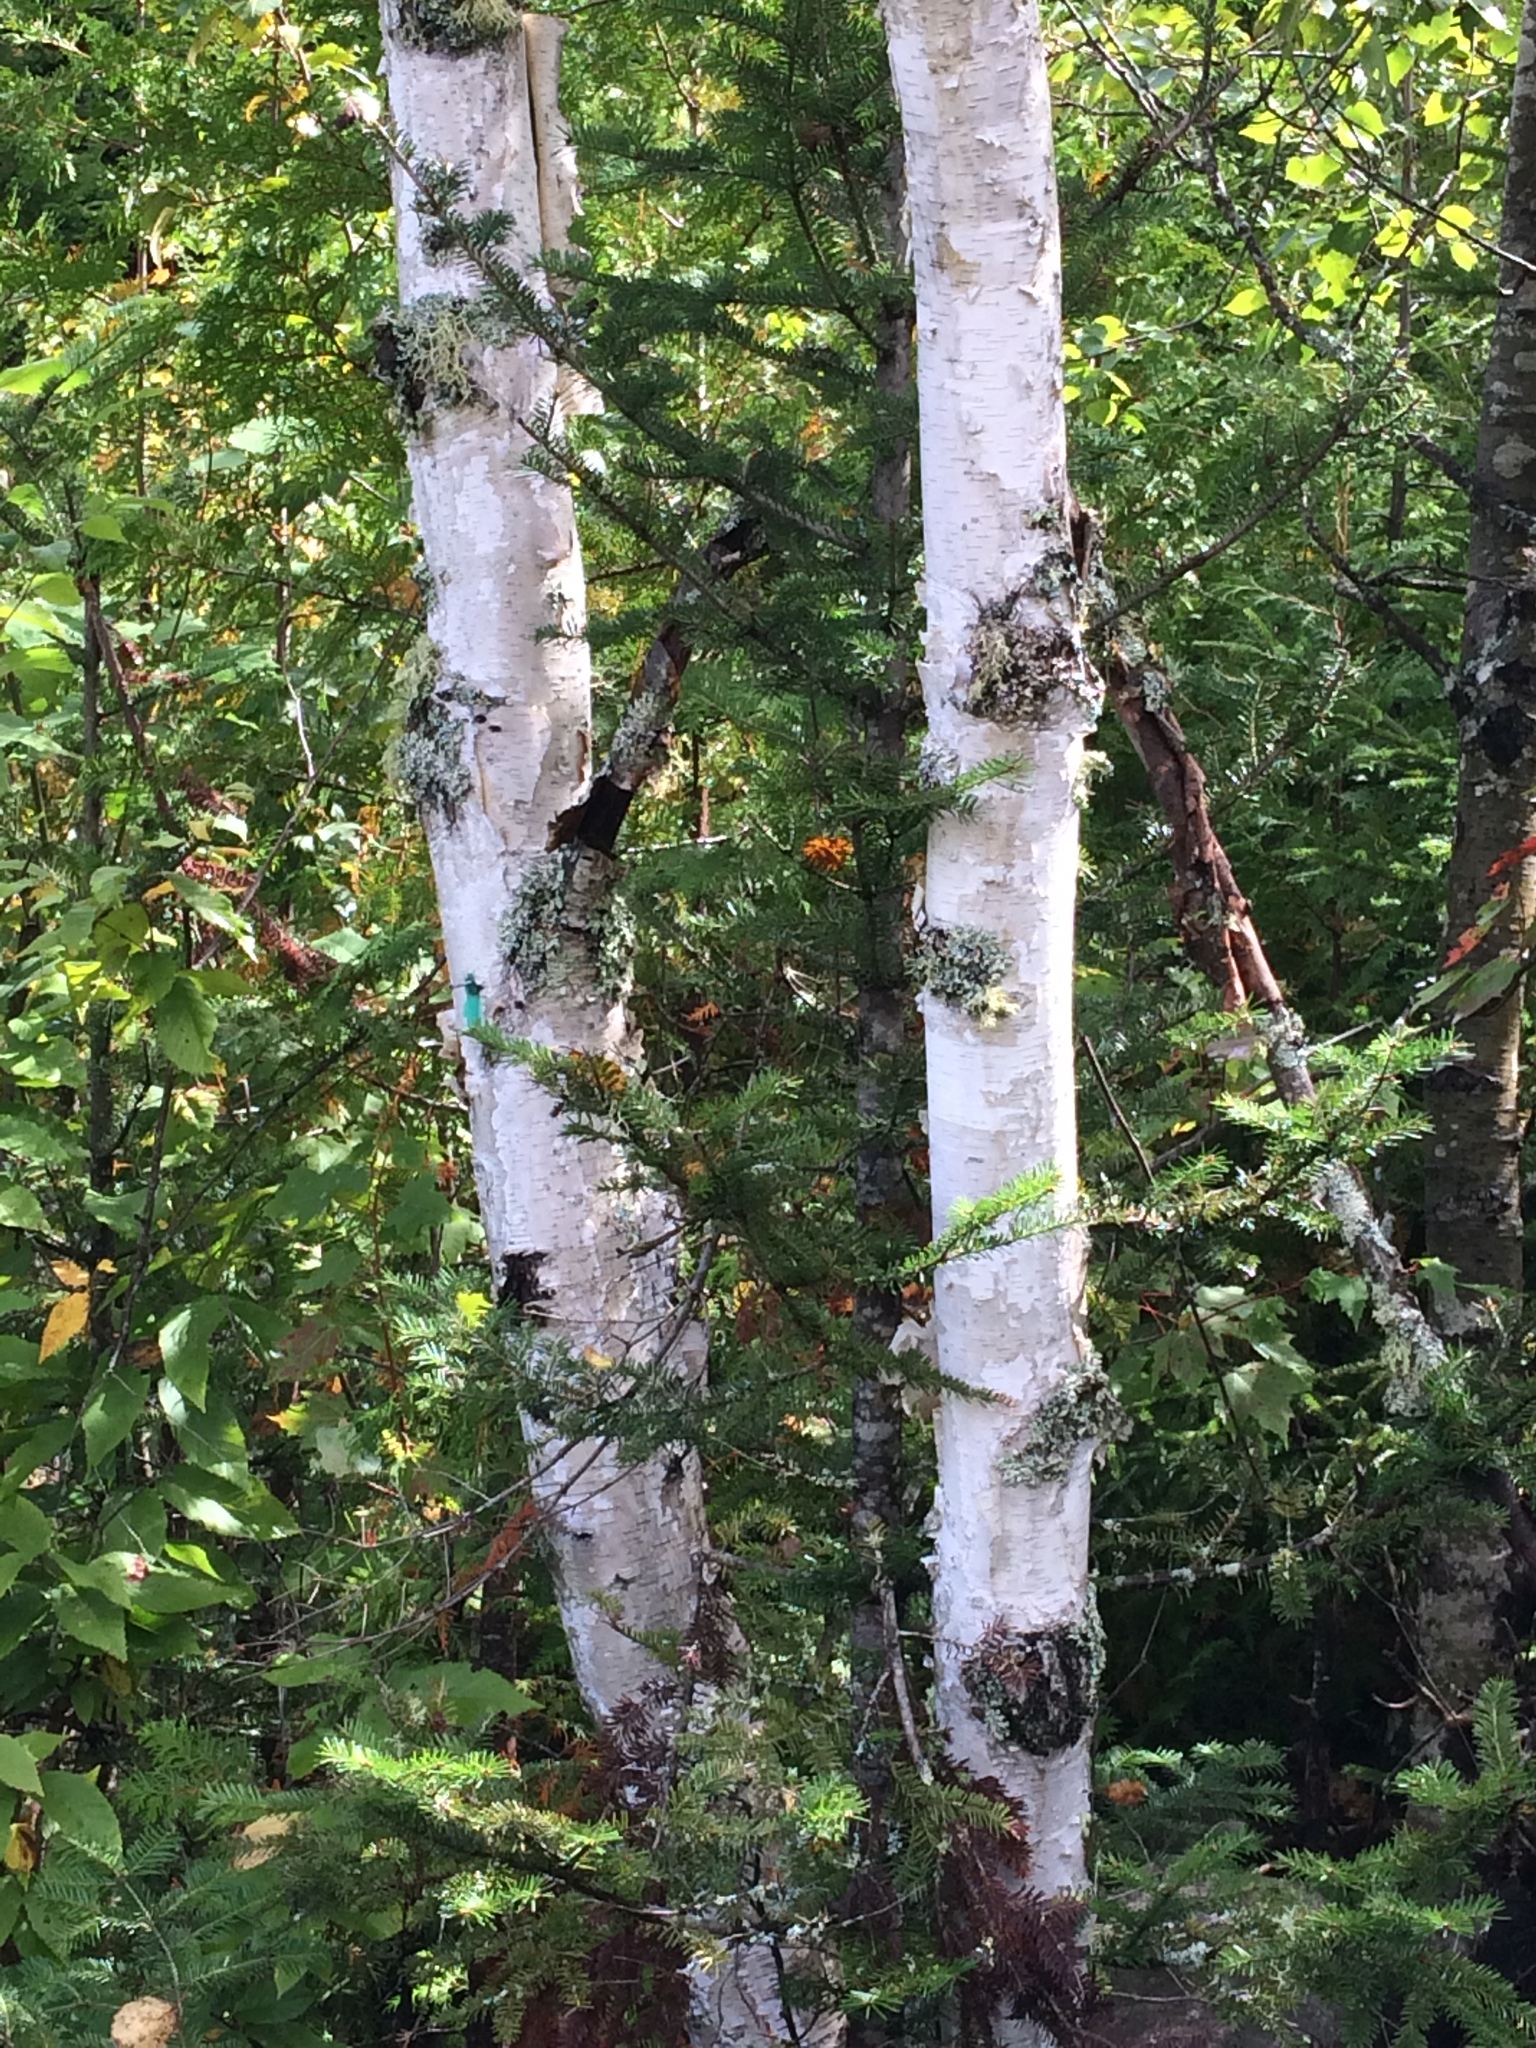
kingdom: Plantae
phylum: Tracheophyta
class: Magnoliopsida
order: Fagales
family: Betulaceae
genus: Betula
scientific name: Betula papyrifera
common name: Paper birch
